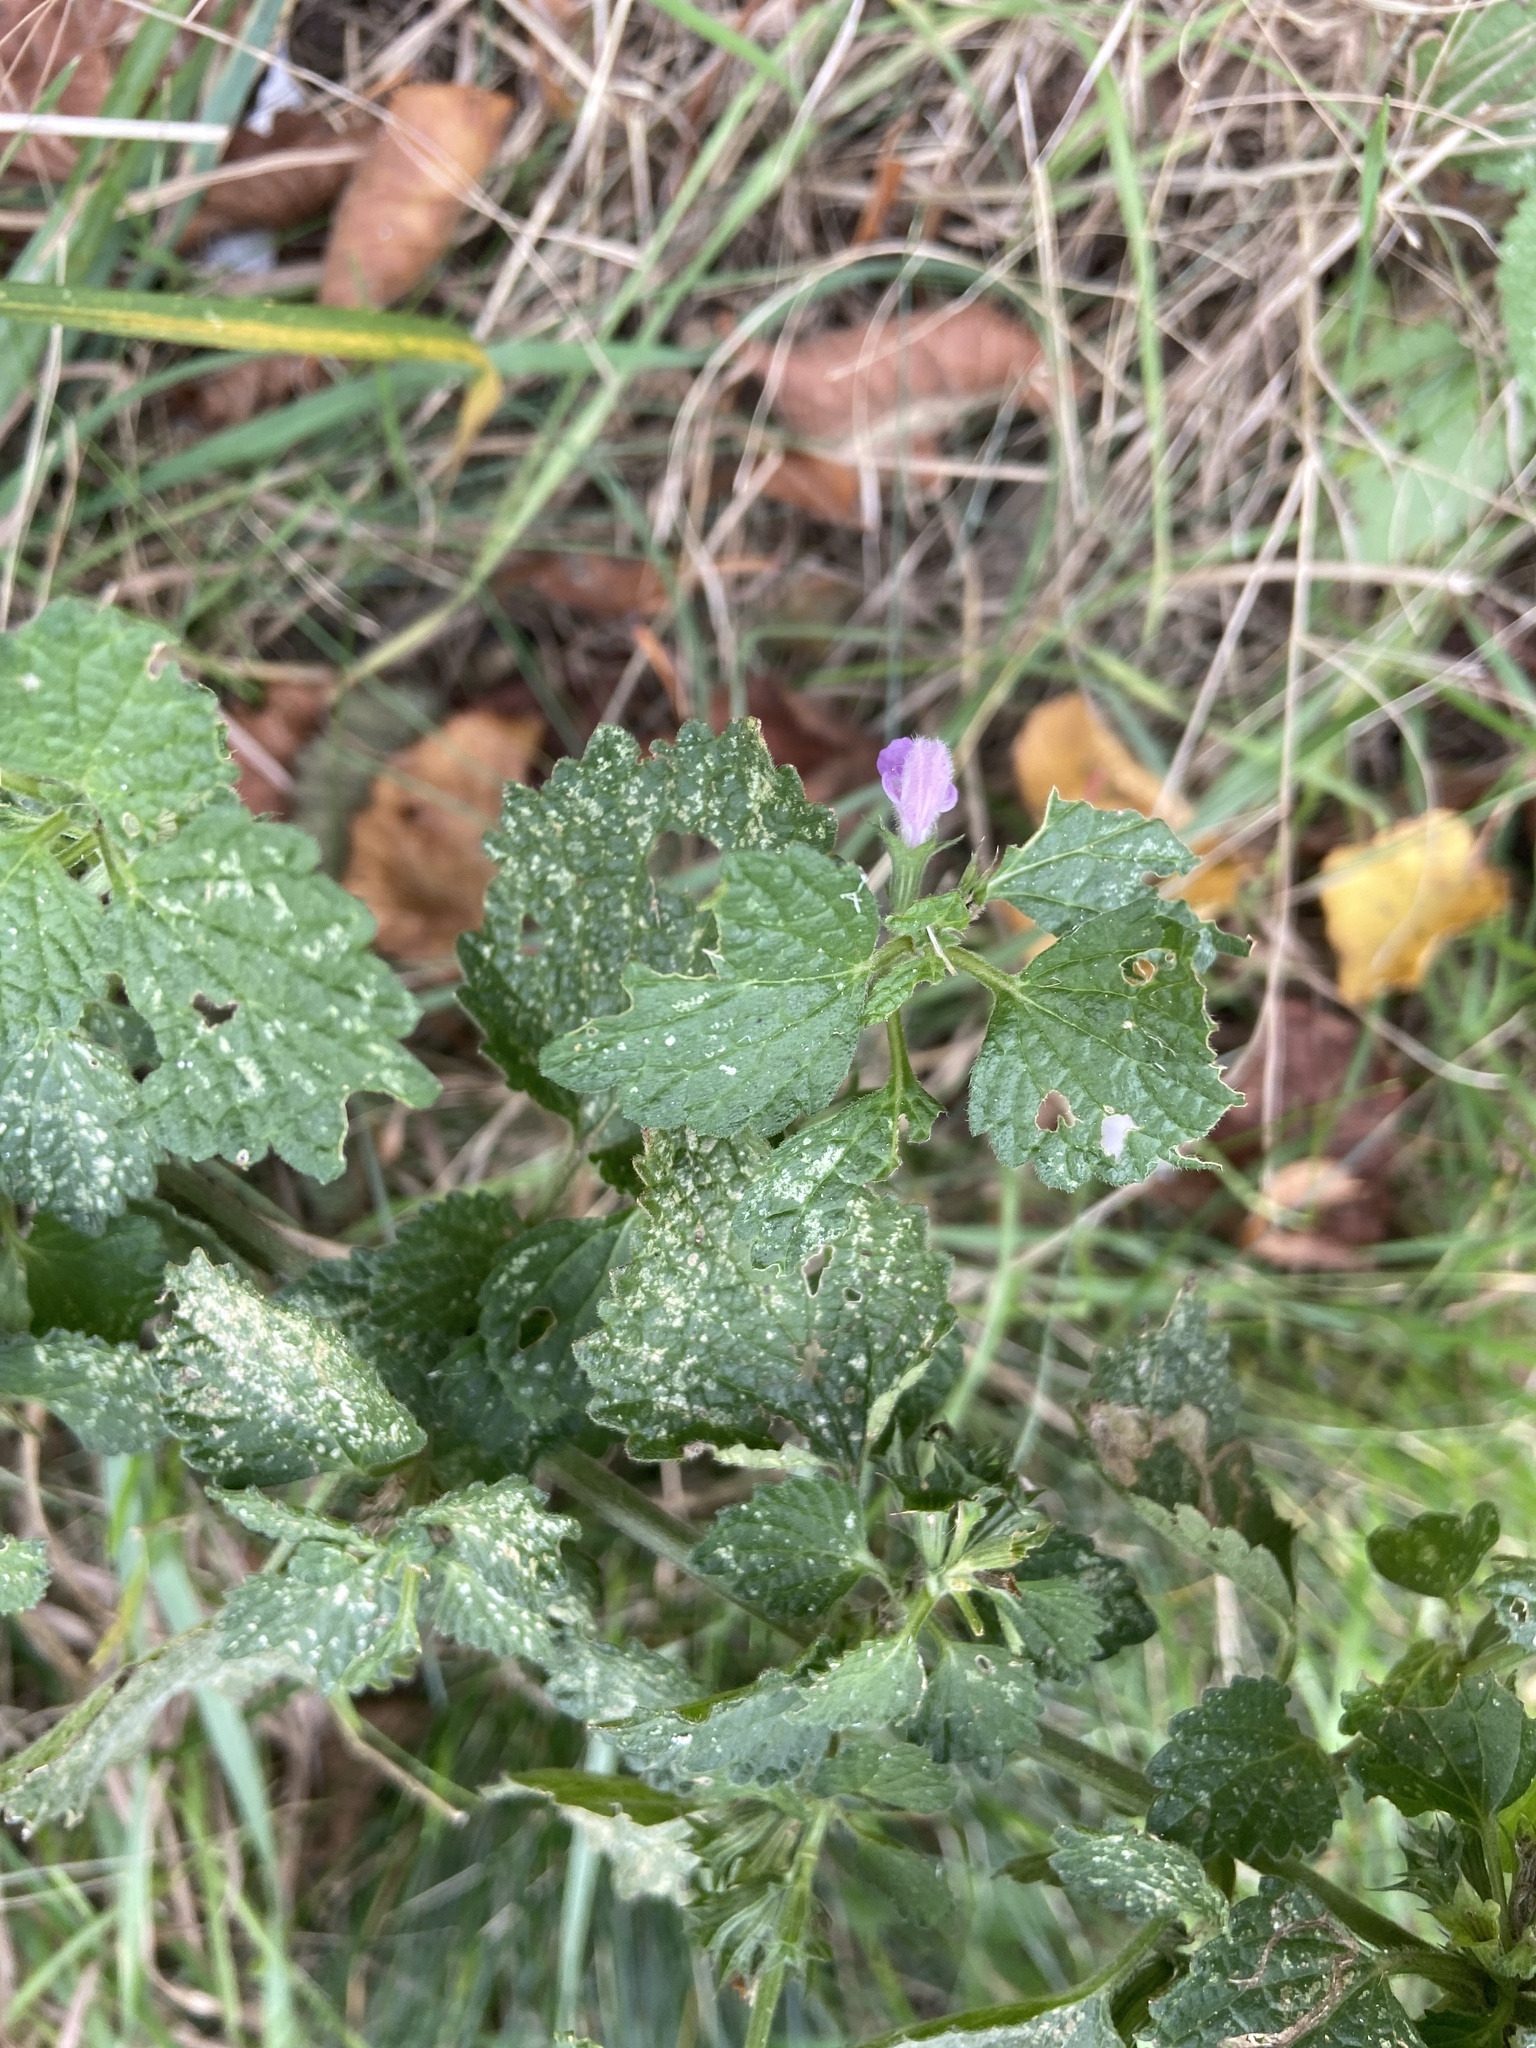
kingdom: Plantae
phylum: Tracheophyta
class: Magnoliopsida
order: Lamiales
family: Lamiaceae
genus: Ballota
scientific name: Ballota nigra
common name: Black horehound
